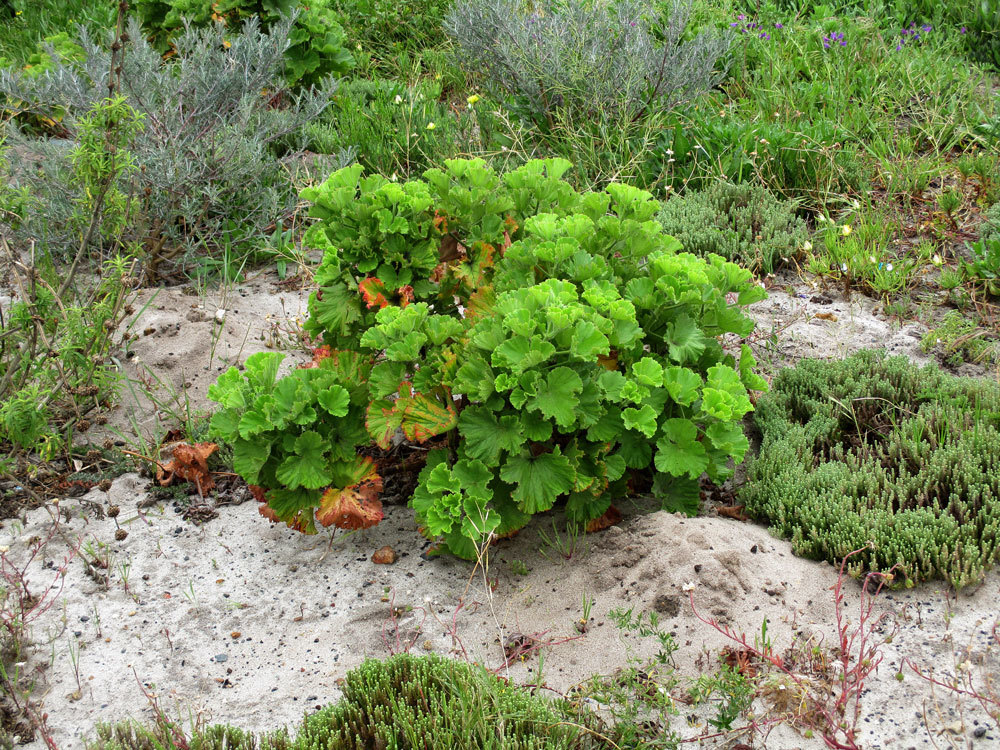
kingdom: Plantae
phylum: Tracheophyta
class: Magnoliopsida
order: Geraniales
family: Geraniaceae
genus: Pelargonium
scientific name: Pelargonium cucullatum
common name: Tree pelargonium
